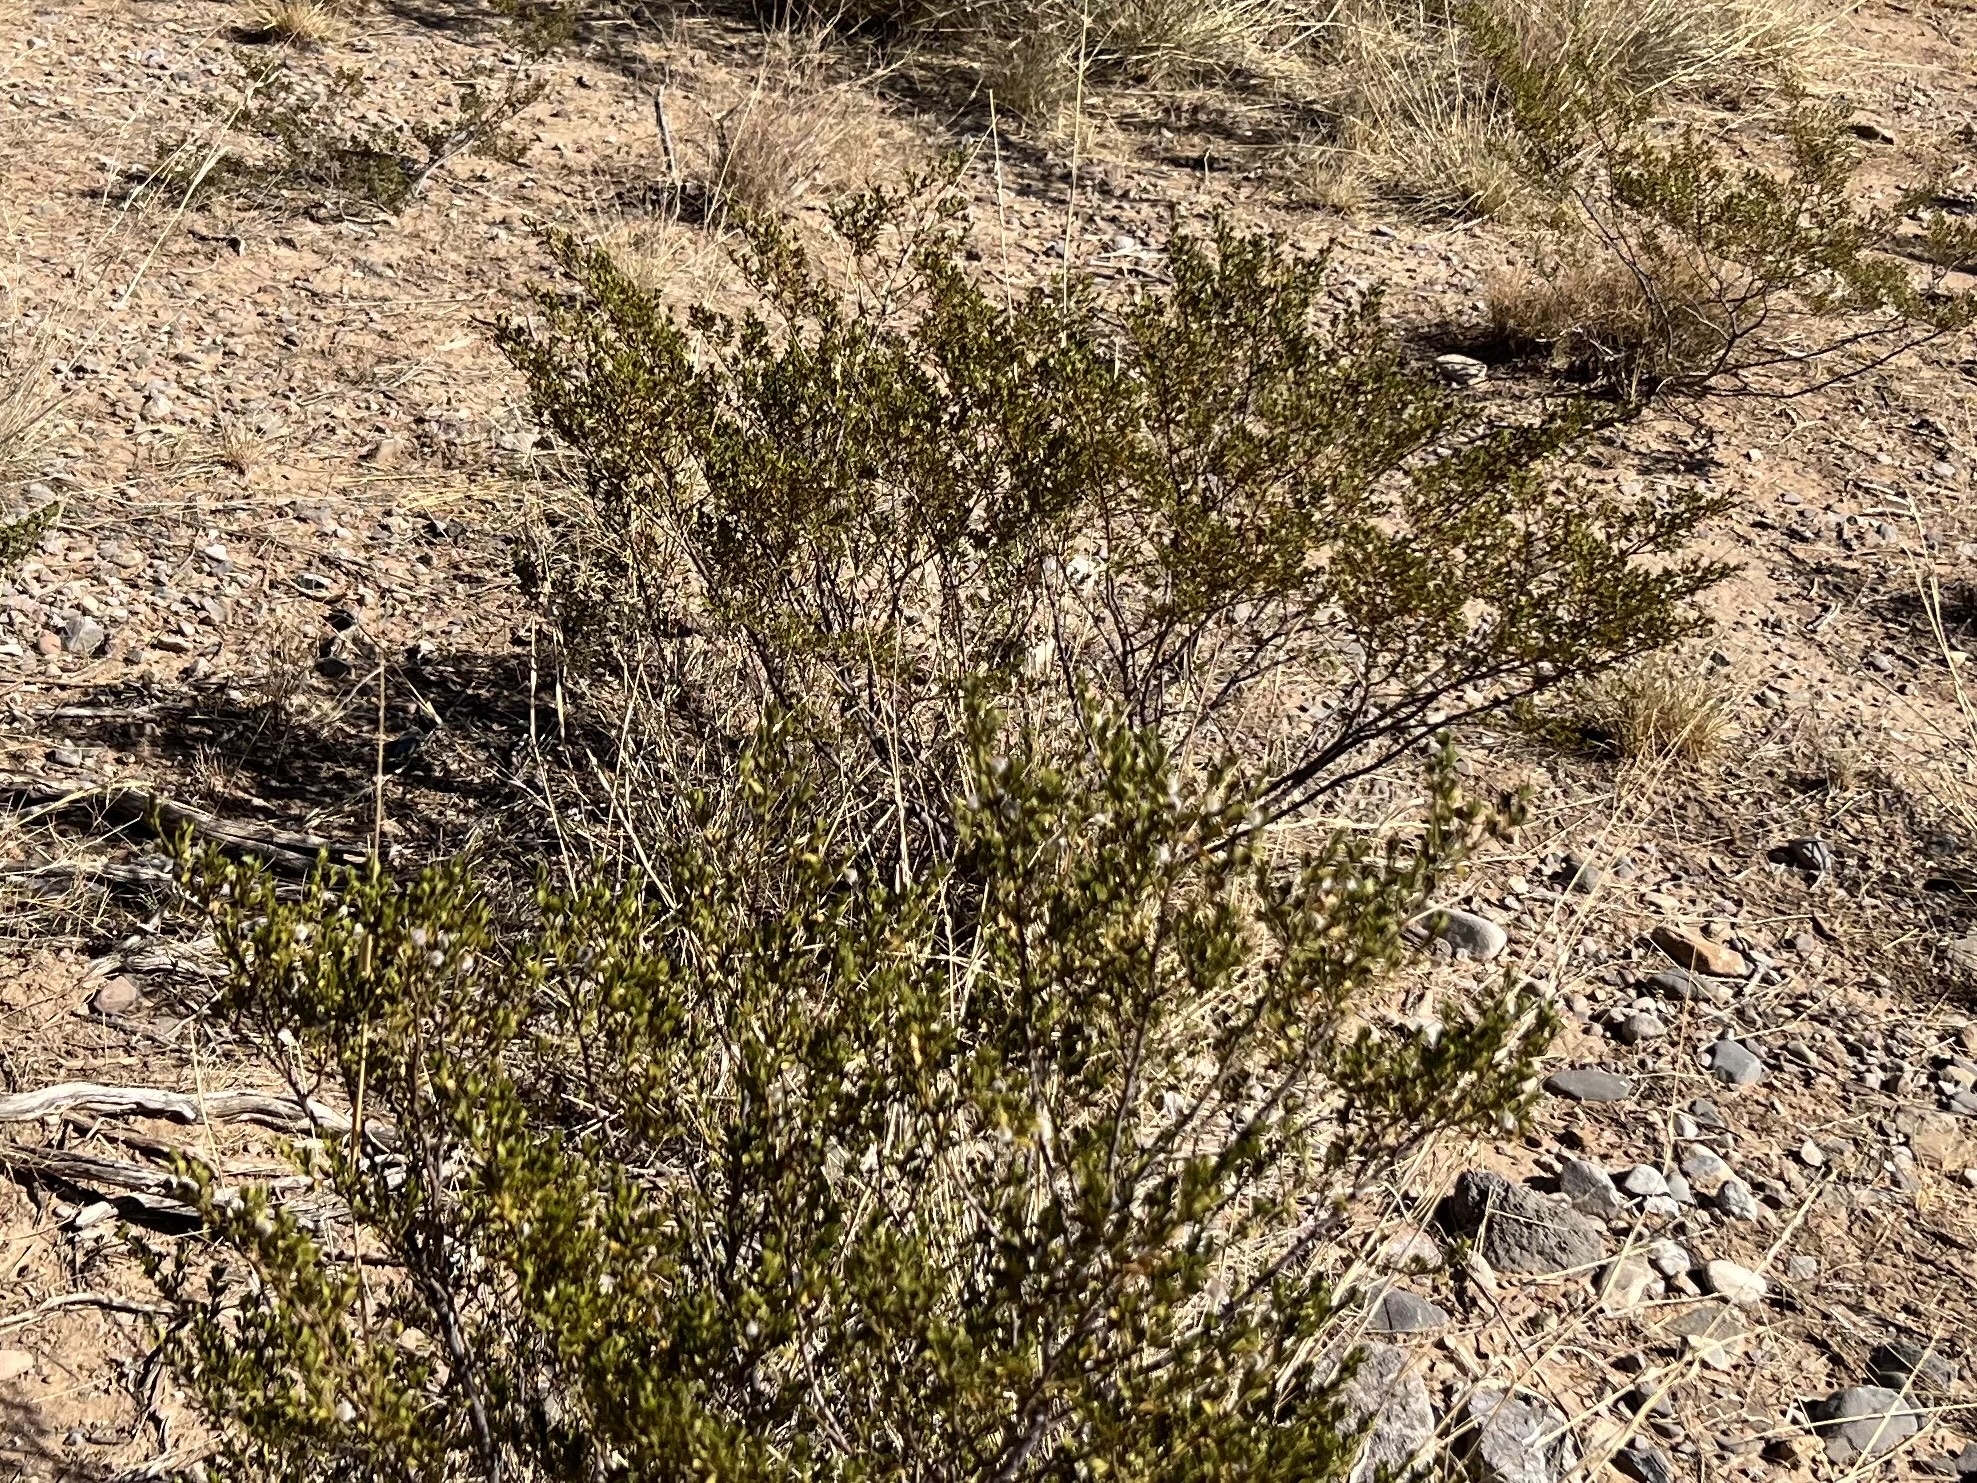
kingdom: Plantae
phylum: Tracheophyta
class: Magnoliopsida
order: Zygophyllales
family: Zygophyllaceae
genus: Larrea
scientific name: Larrea tridentata
